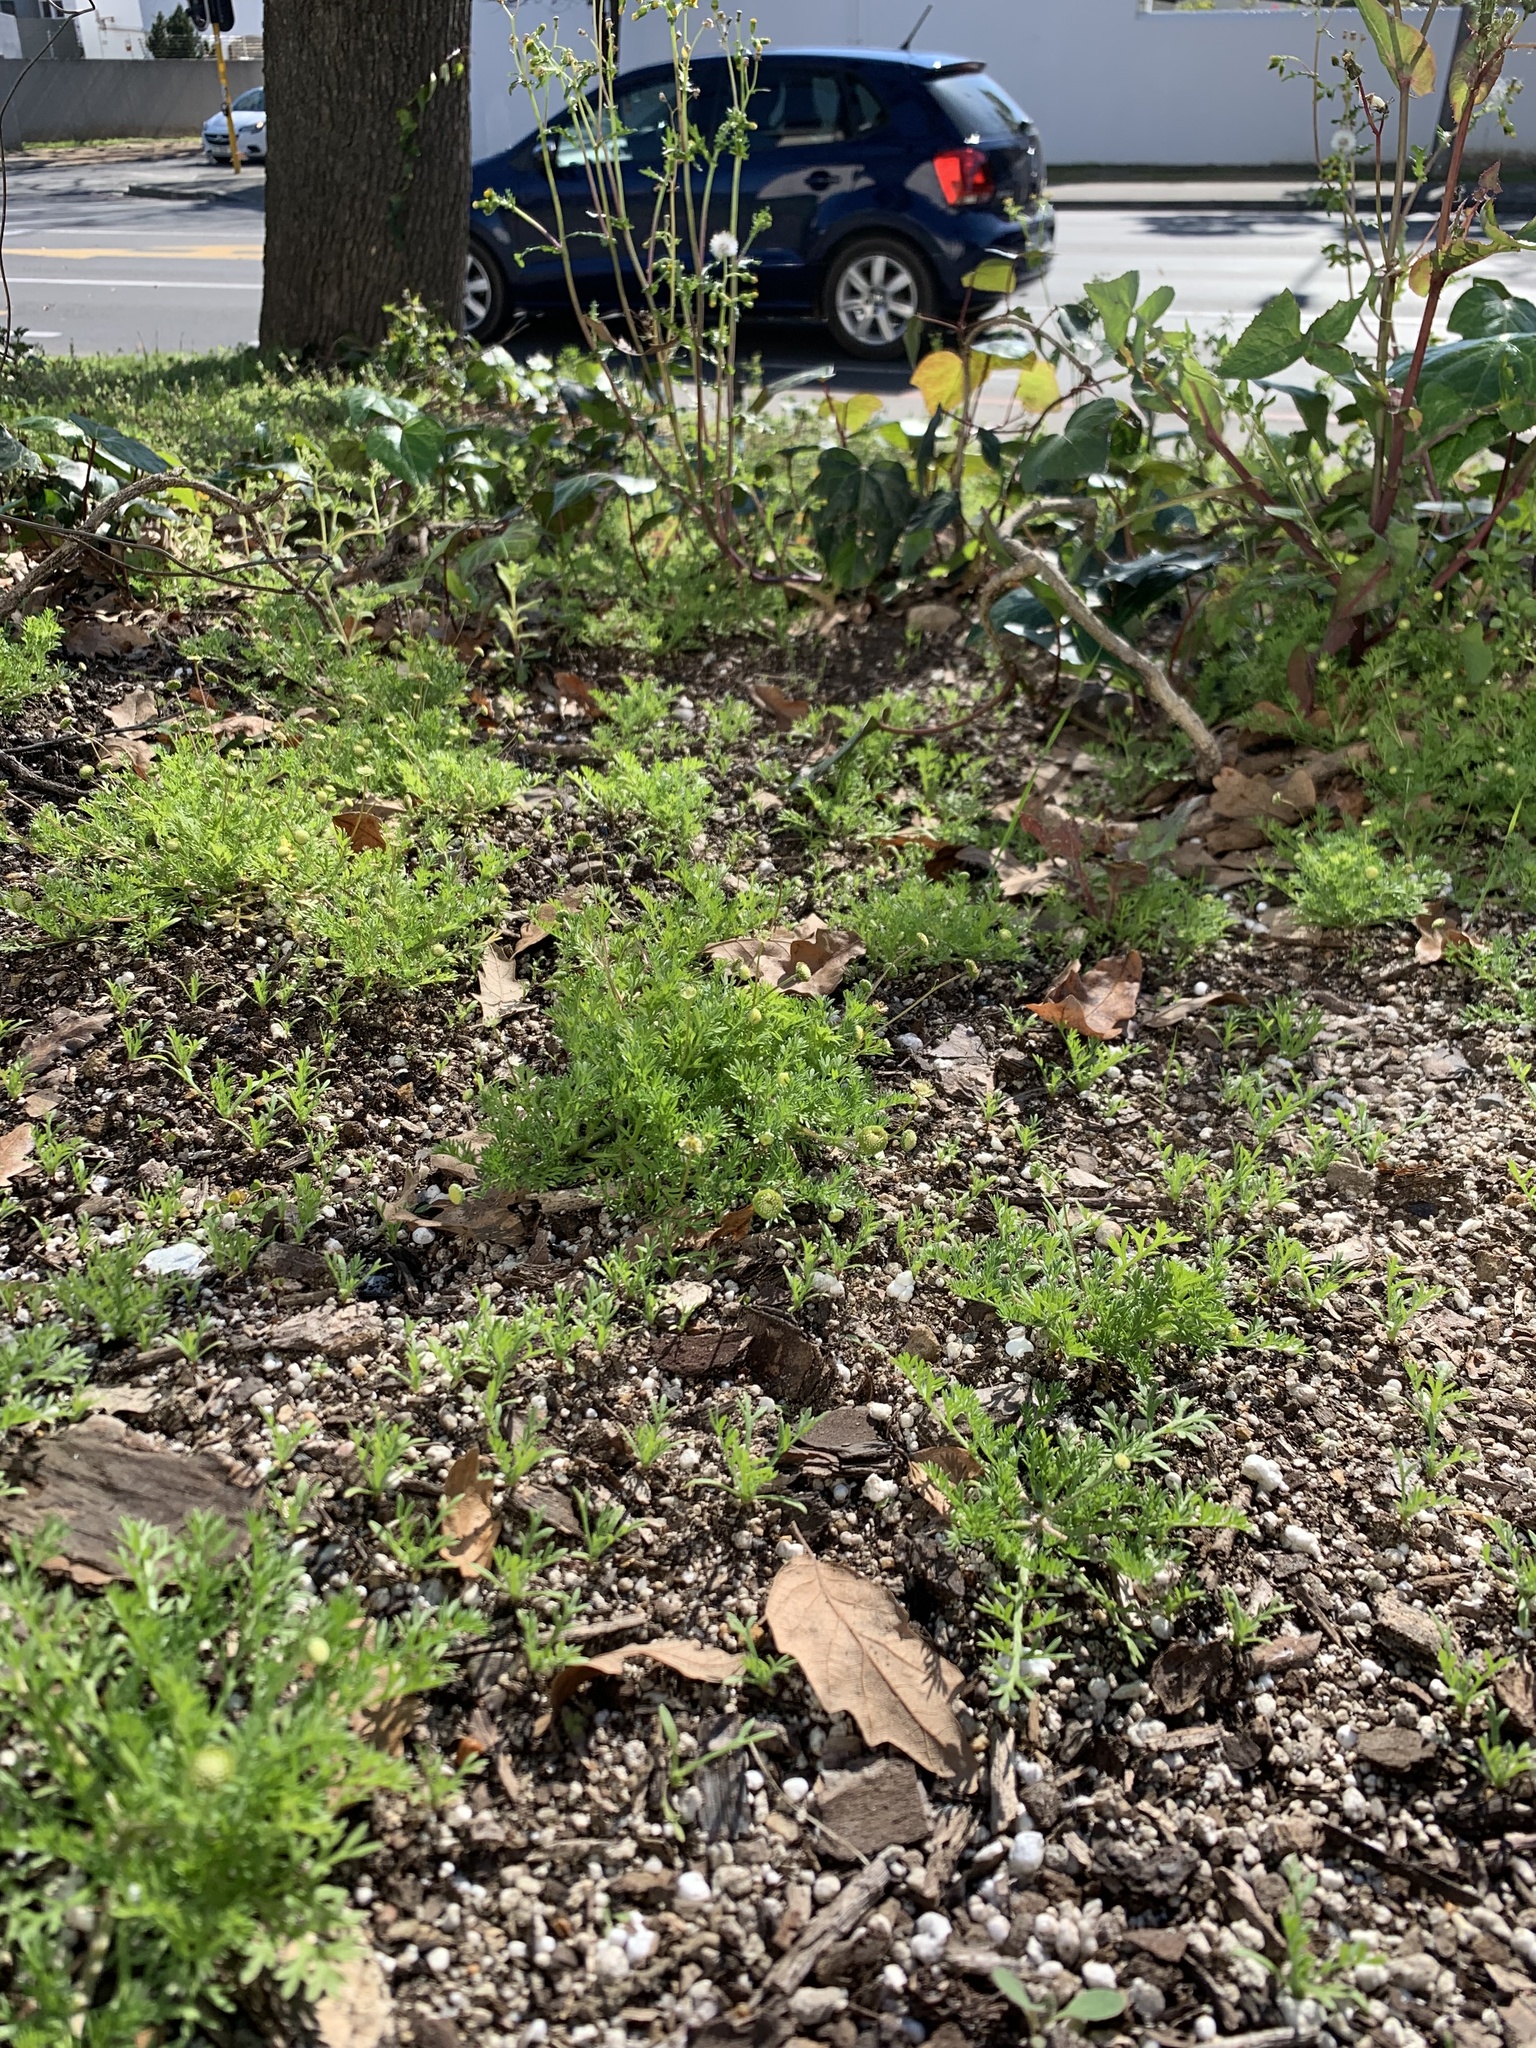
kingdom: Plantae
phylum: Tracheophyta
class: Magnoliopsida
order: Asterales
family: Asteraceae
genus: Cotula
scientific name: Cotula australis
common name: Australian waterbuttons
